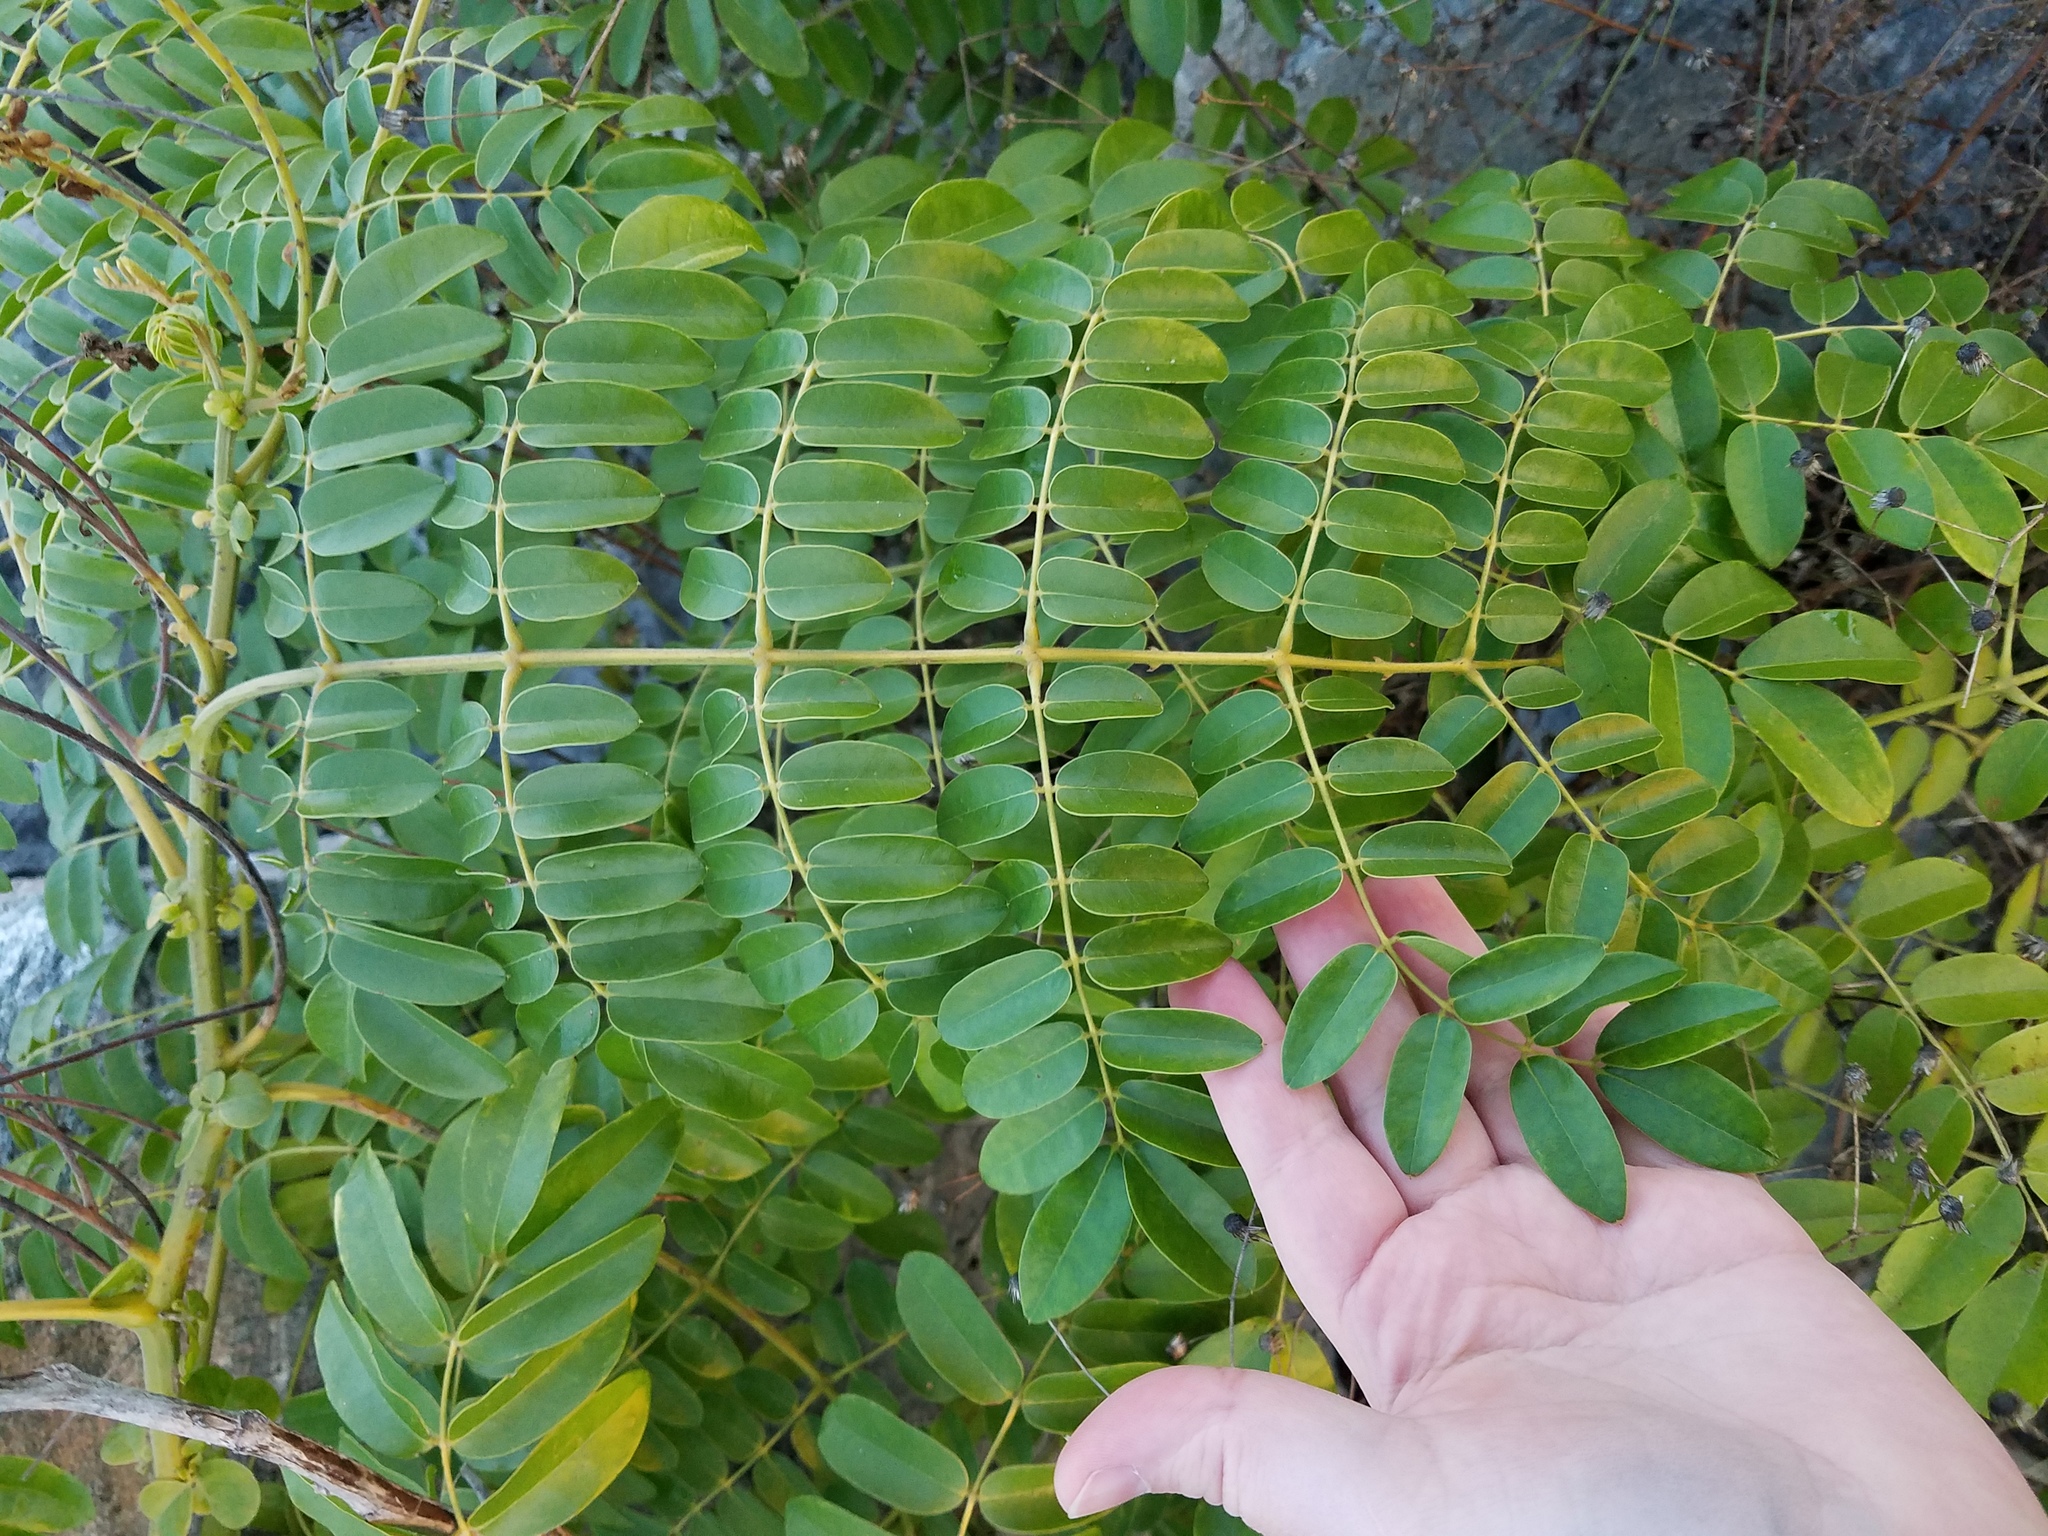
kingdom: Plantae
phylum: Tracheophyta
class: Magnoliopsida
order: Fabales
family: Fabaceae
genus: Guilandina
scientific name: Guilandina bonduc
